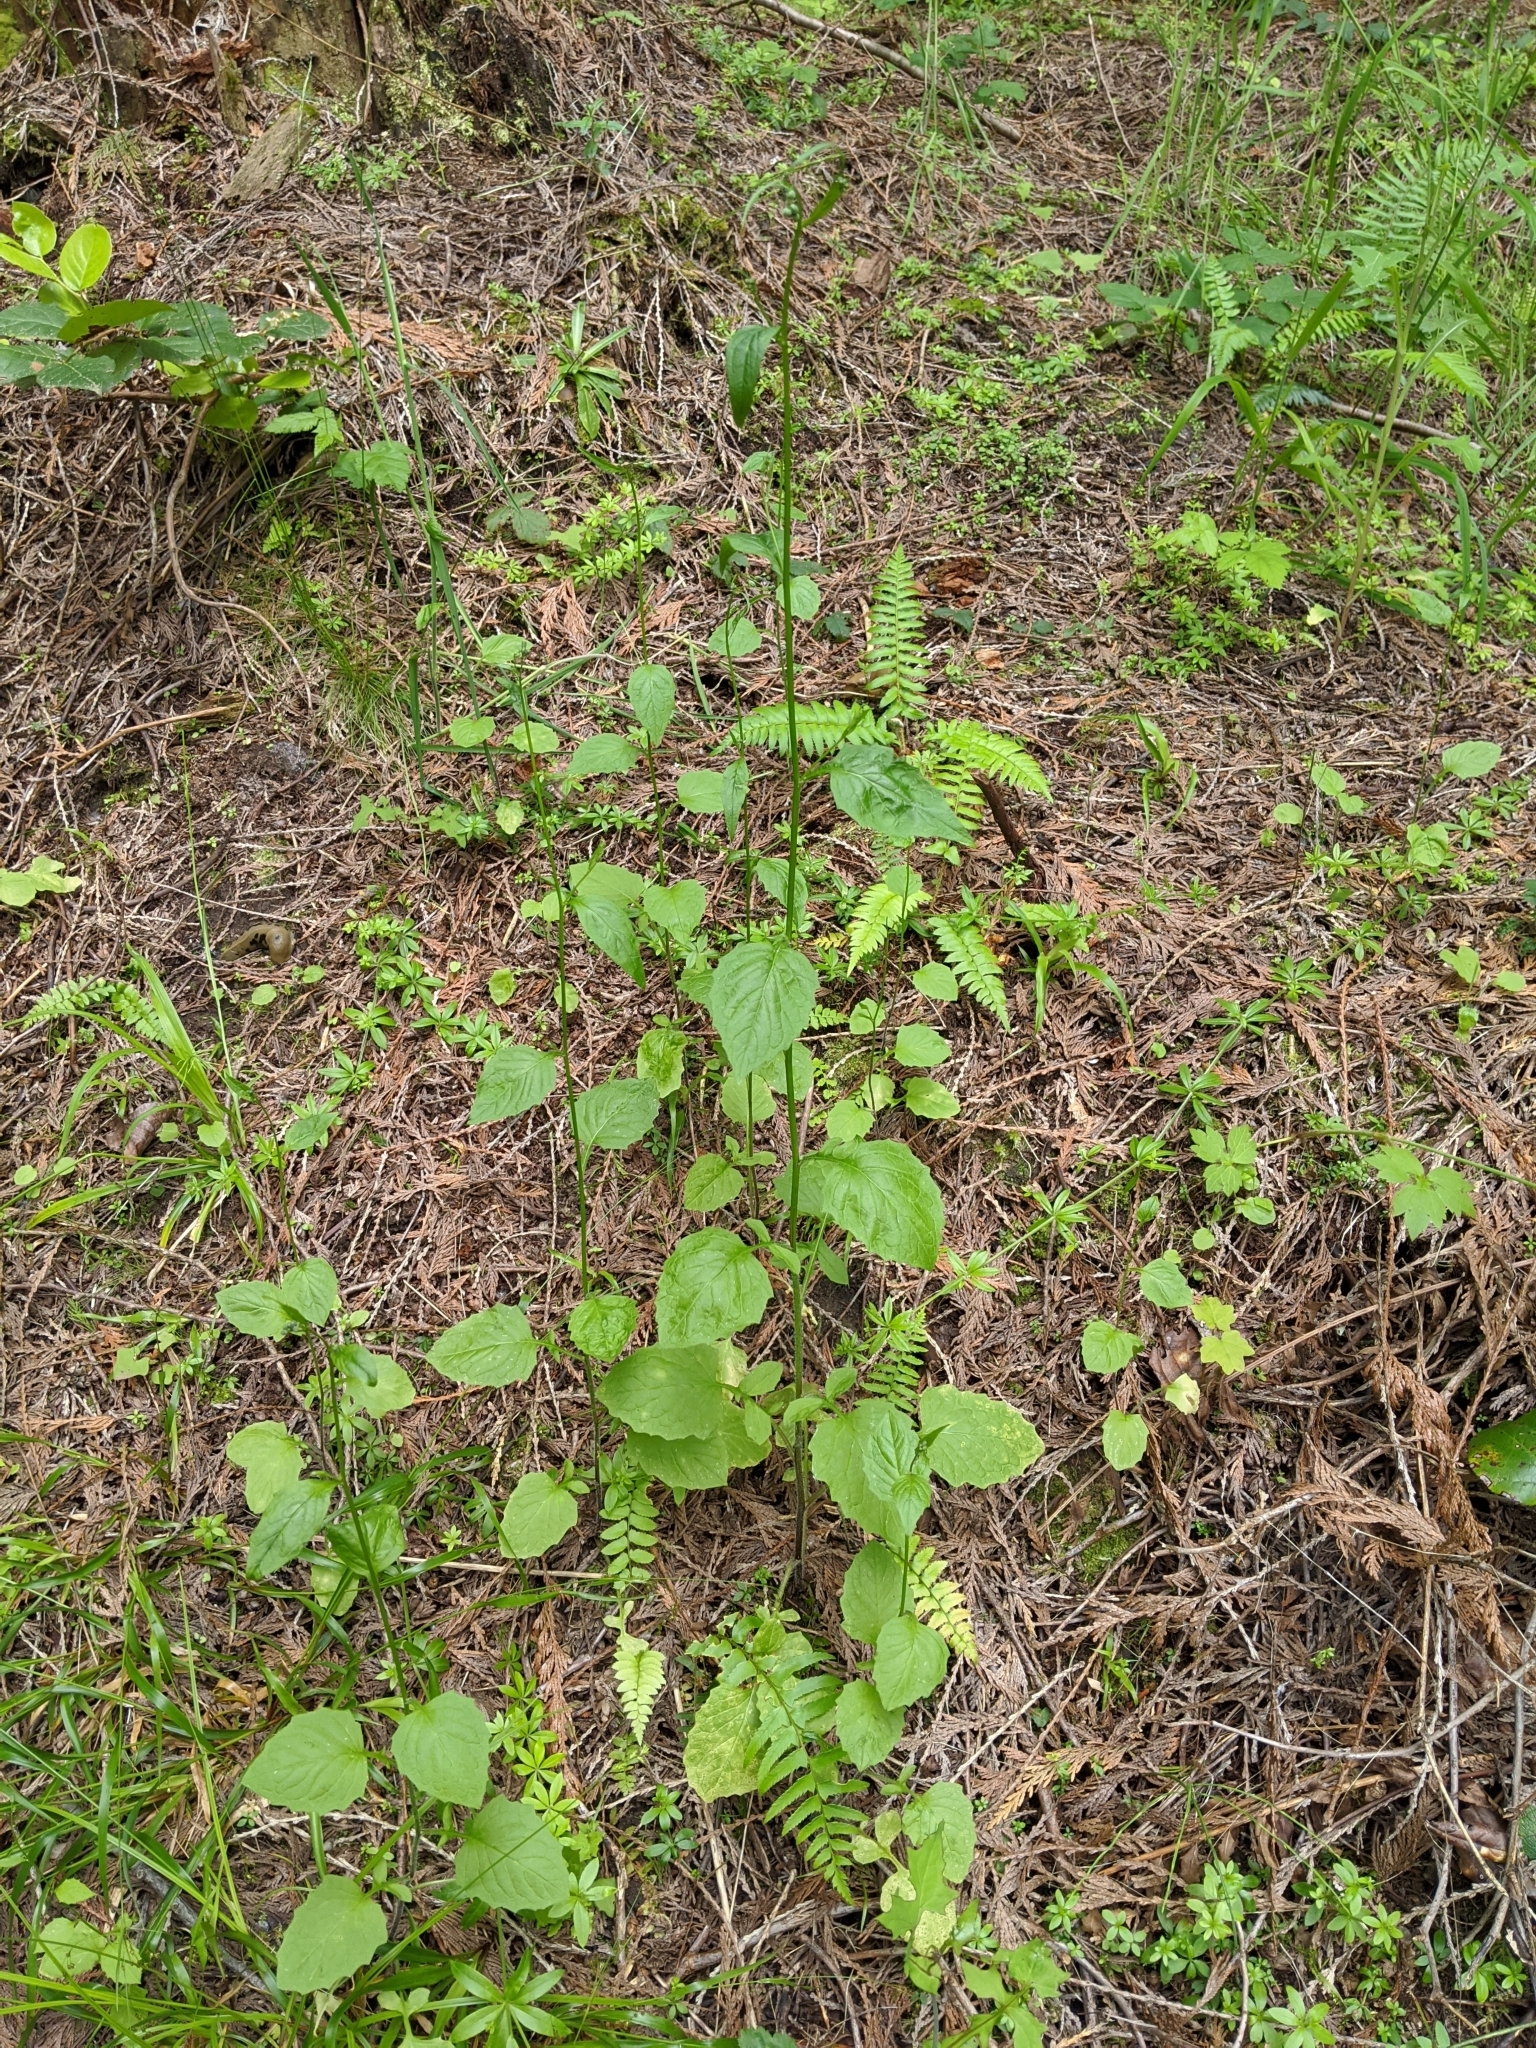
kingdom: Plantae
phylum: Tracheophyta
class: Magnoliopsida
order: Asterales
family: Asteraceae
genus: Lapsana
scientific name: Lapsana communis
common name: Nipplewort
